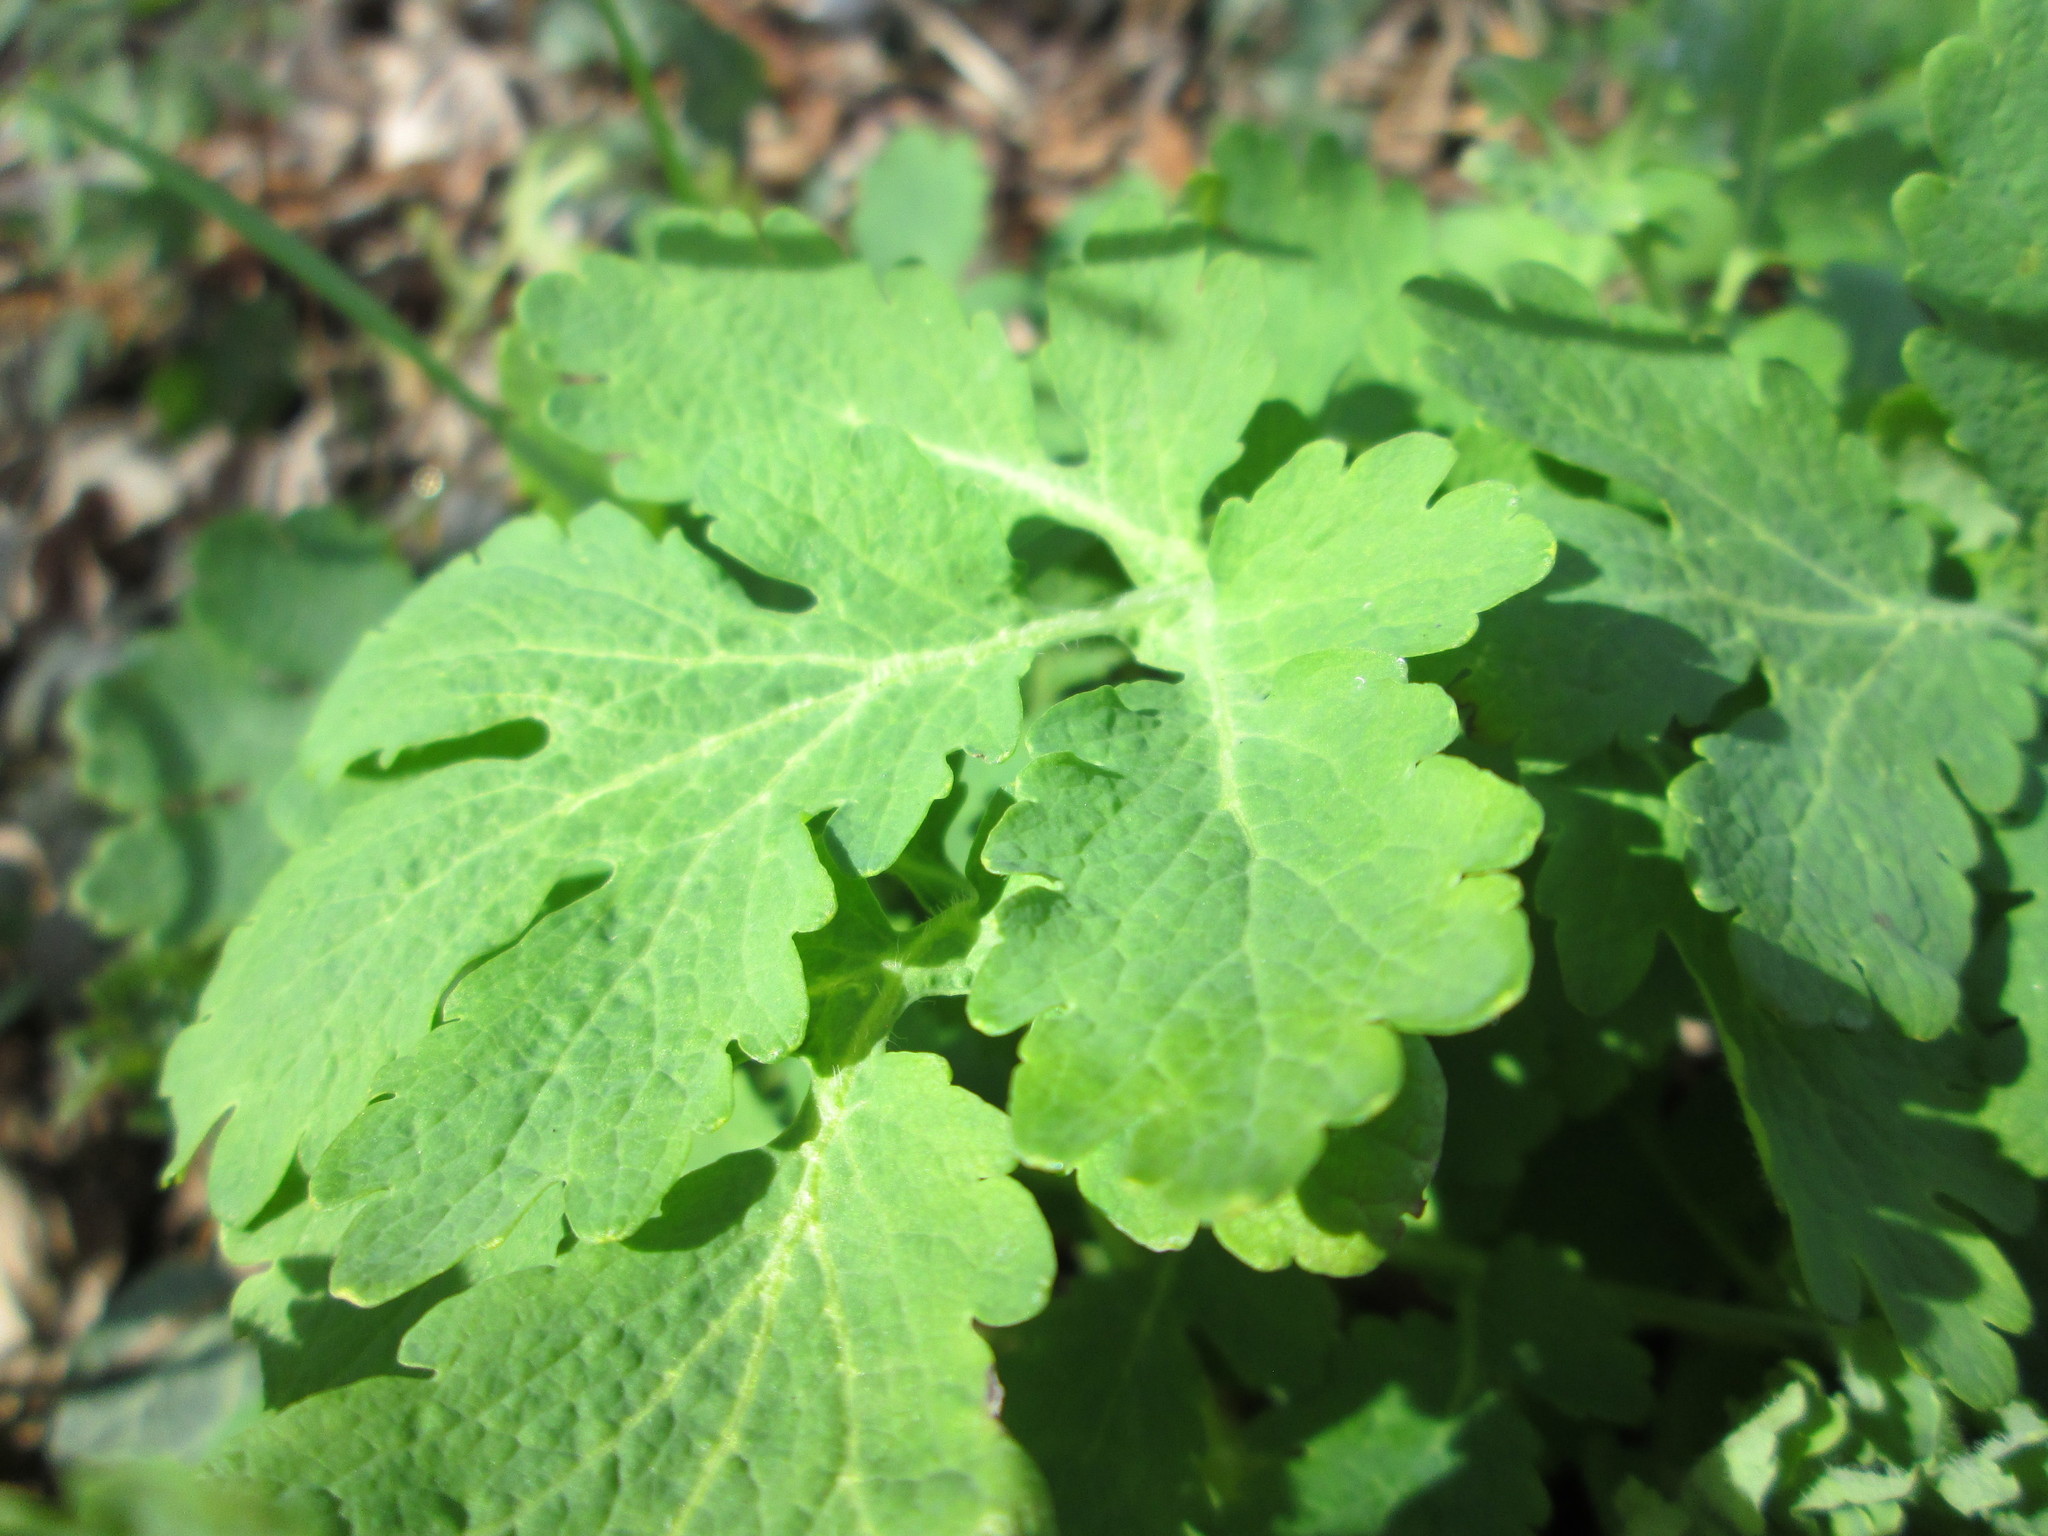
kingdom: Plantae
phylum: Tracheophyta
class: Magnoliopsida
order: Ranunculales
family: Papaveraceae
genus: Chelidonium
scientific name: Chelidonium majus
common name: Greater celandine
